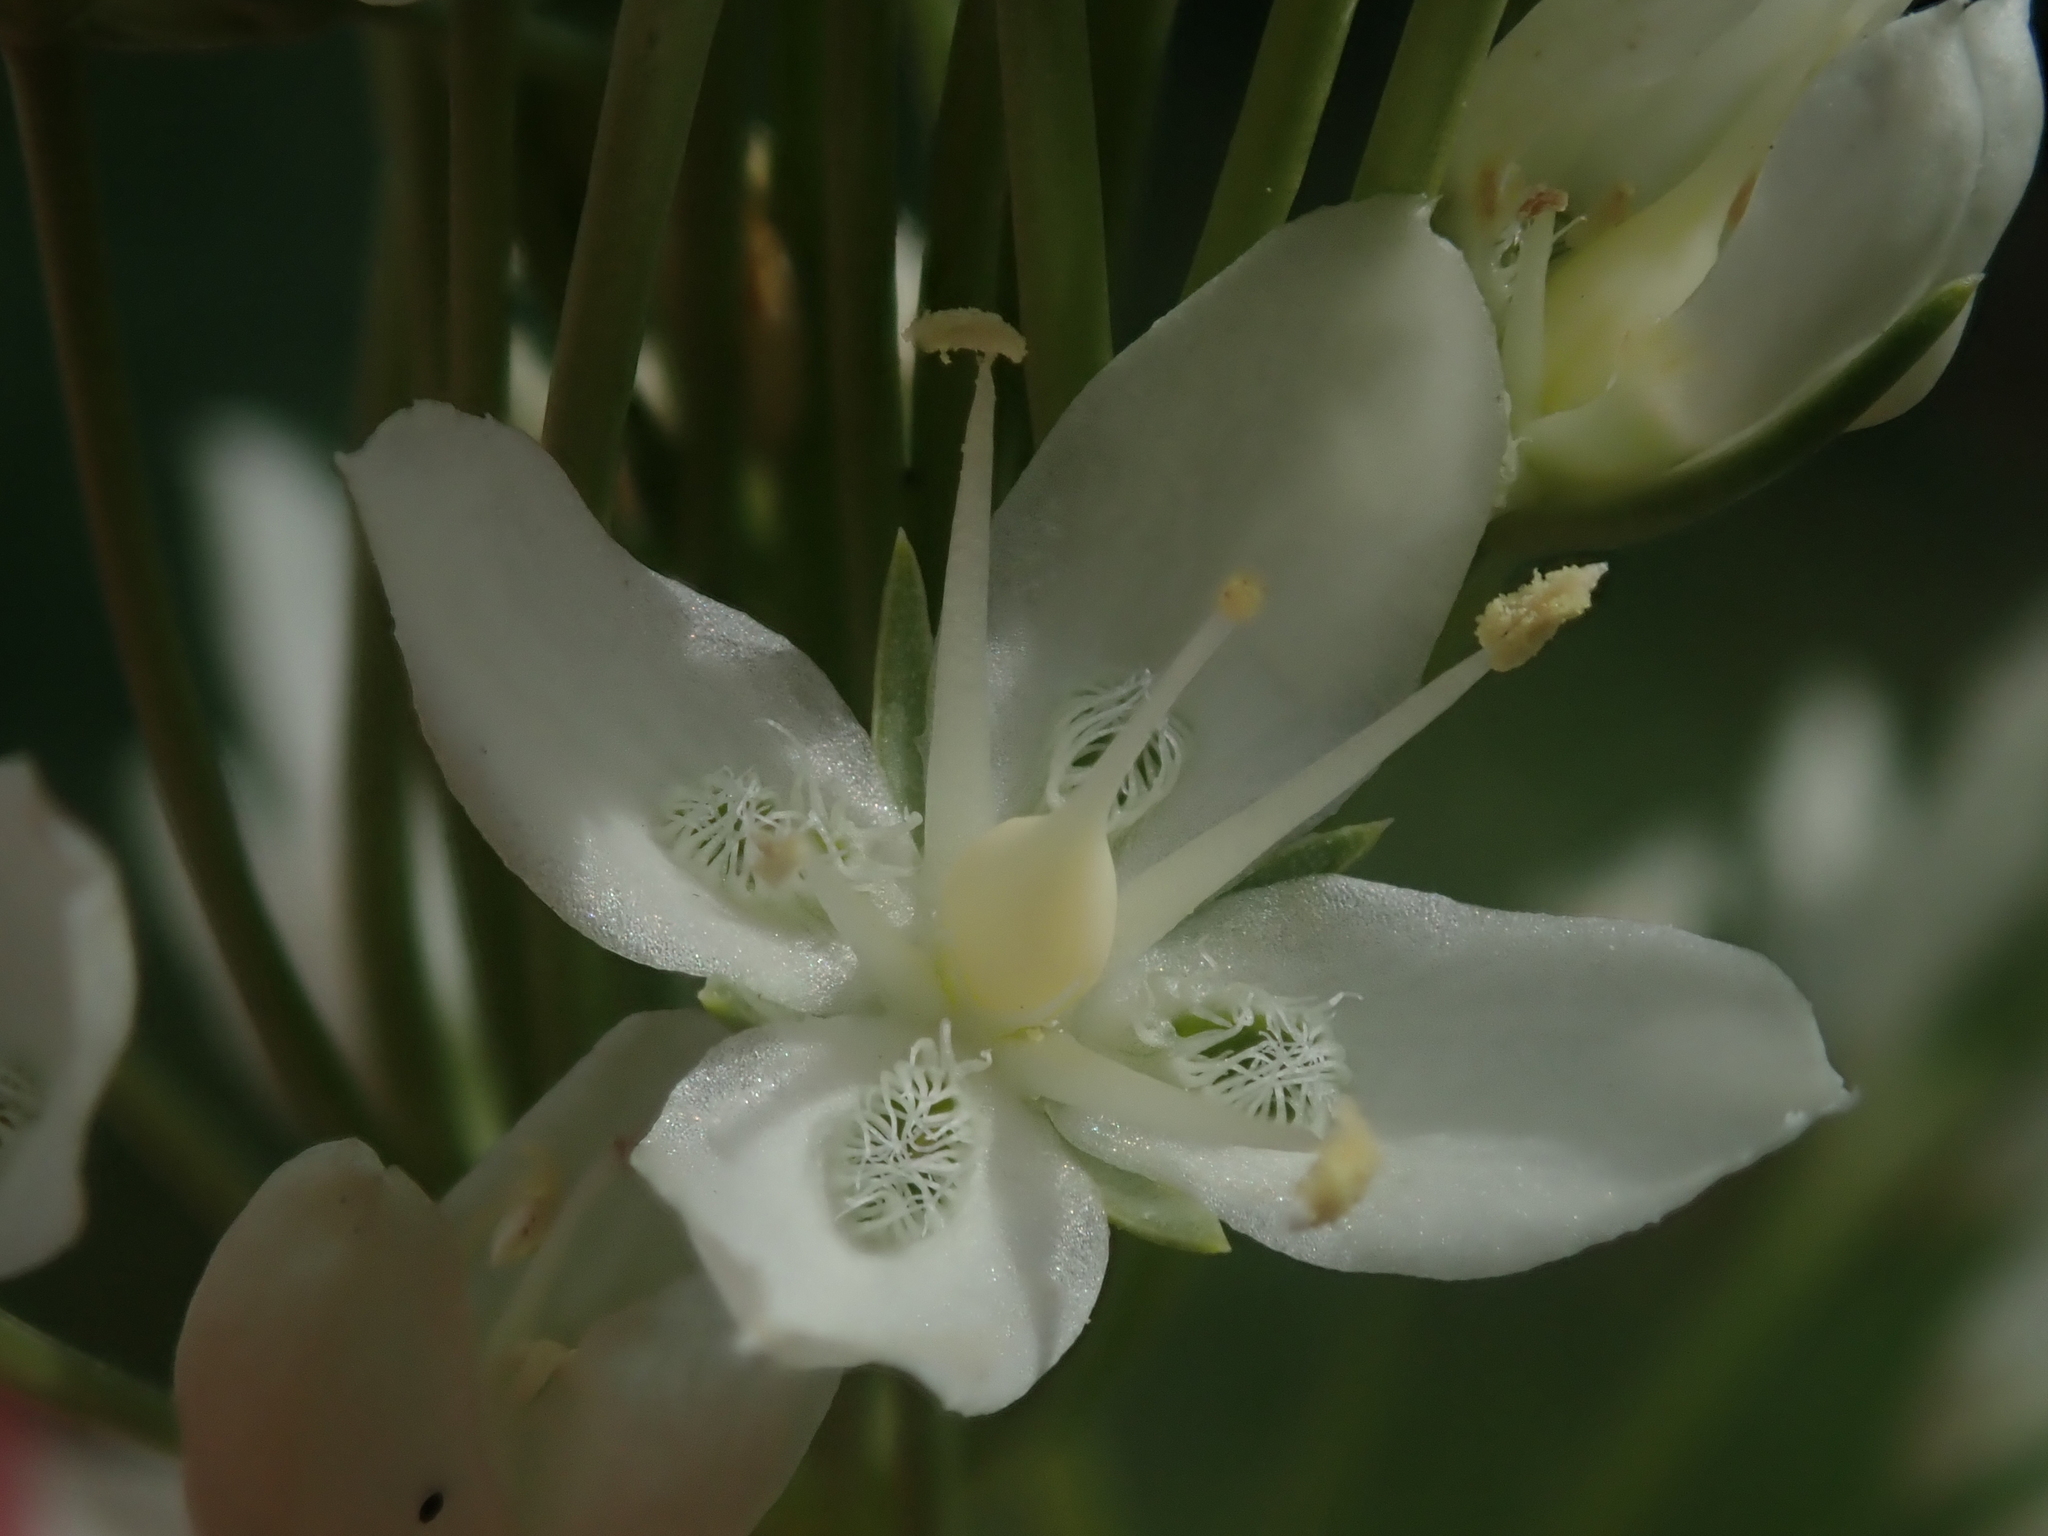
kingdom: Plantae
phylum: Tracheophyta
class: Magnoliopsida
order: Gentianales
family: Gentianaceae
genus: Frasera
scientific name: Frasera montana
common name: White frasera
